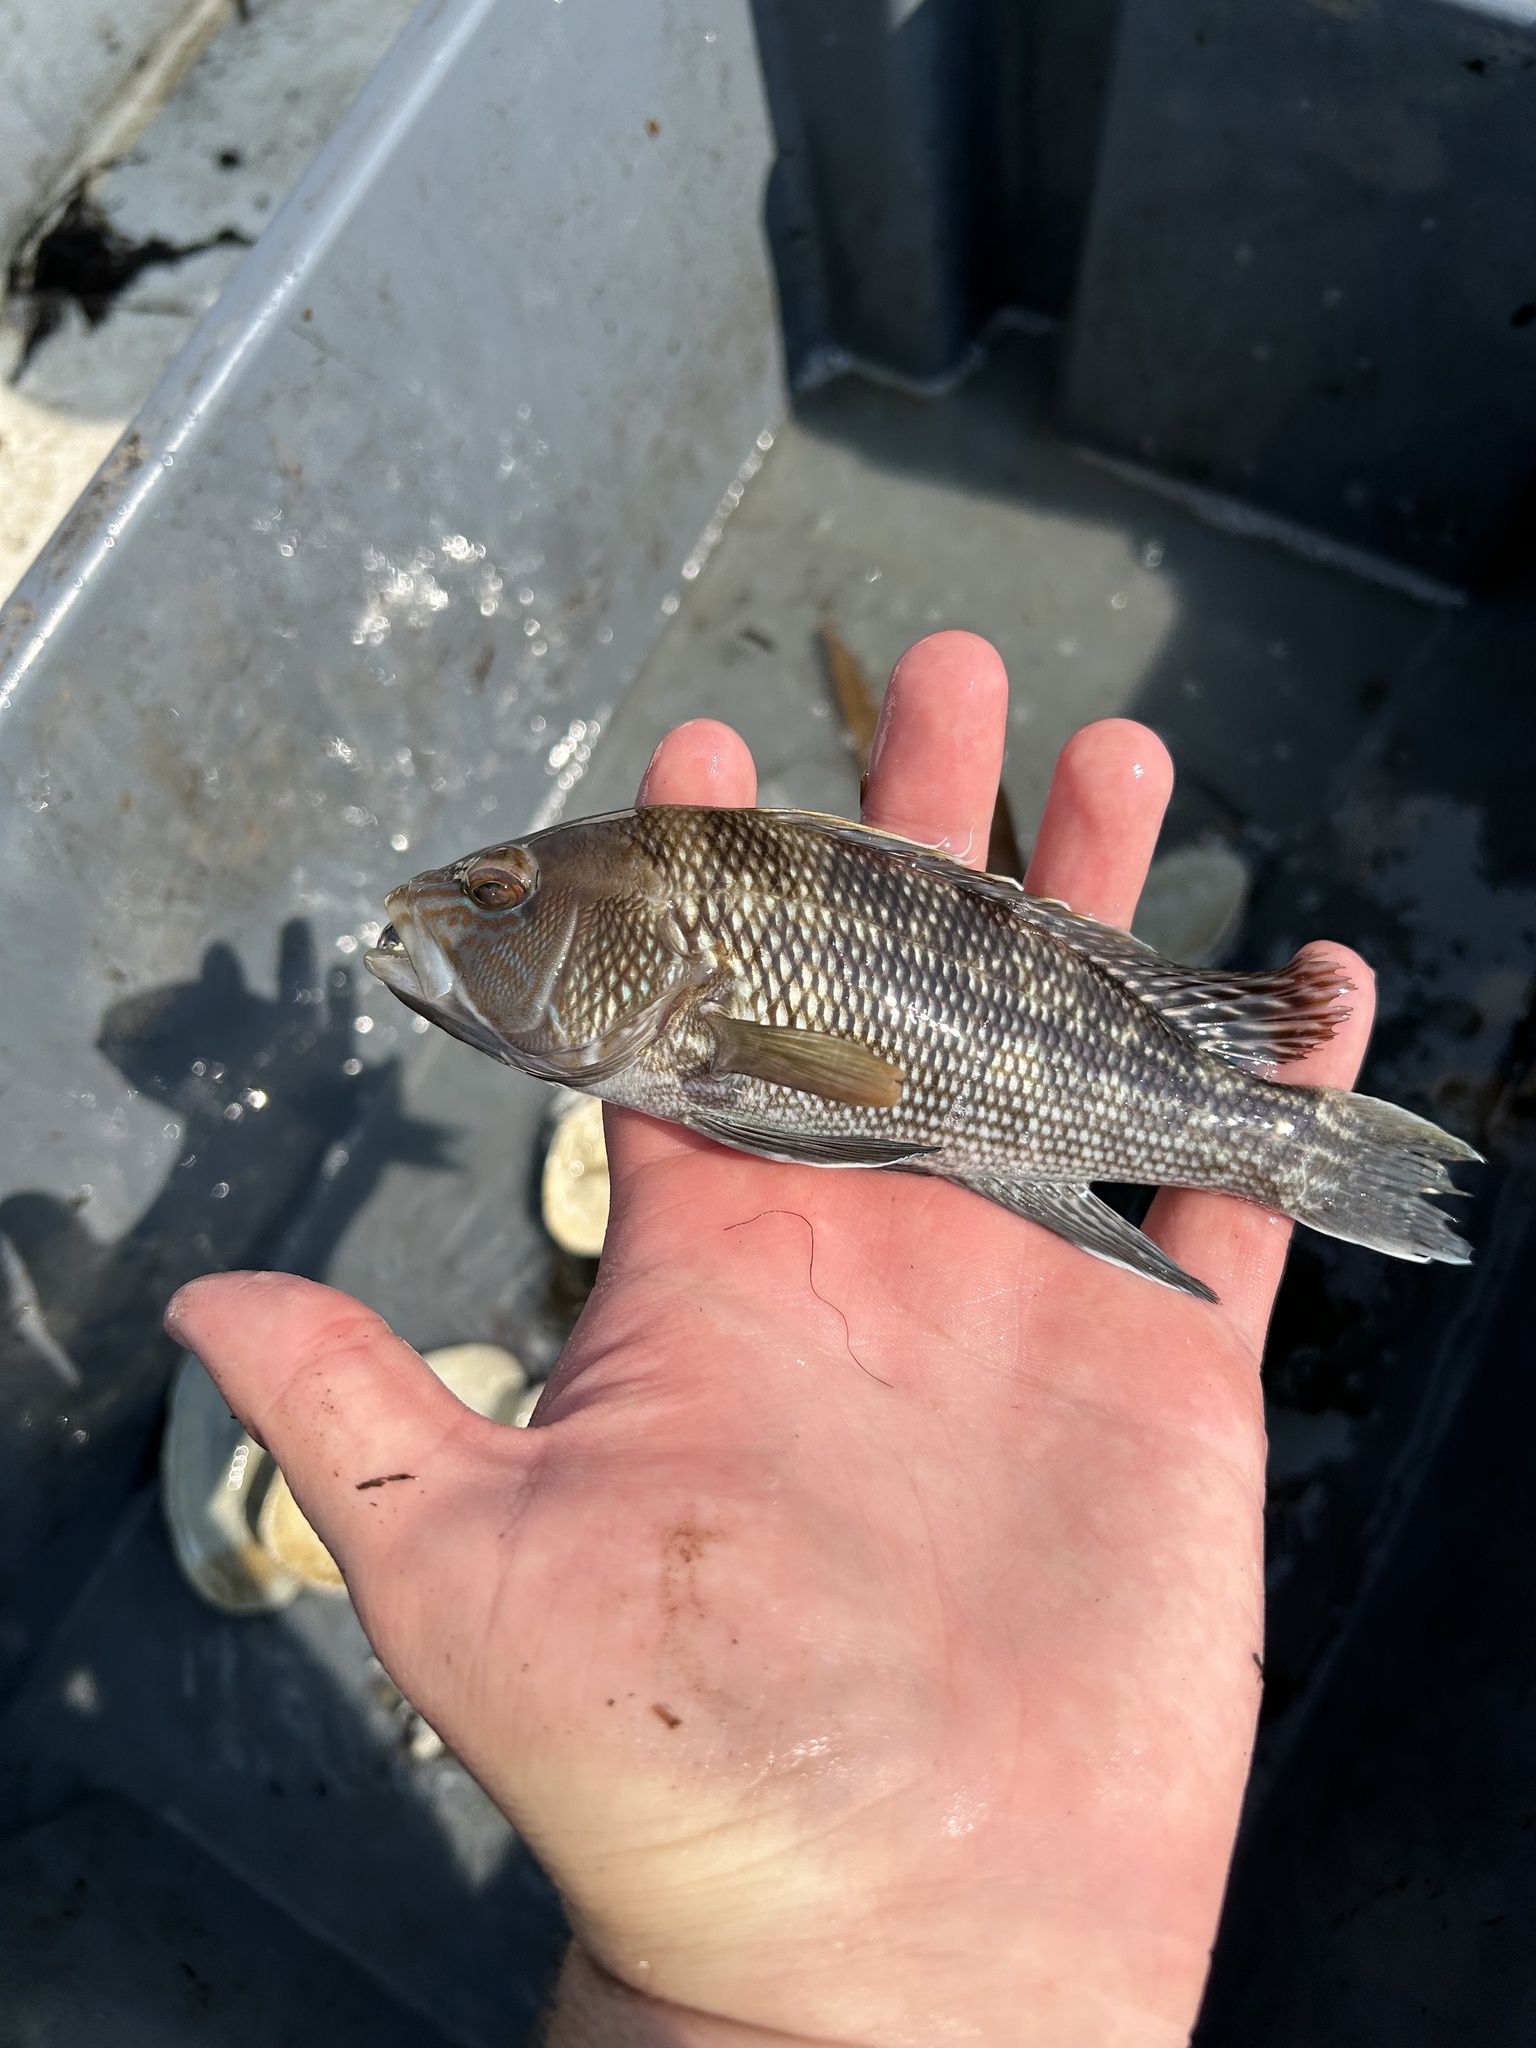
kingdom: Animalia
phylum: Chordata
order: Perciformes
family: Serranidae
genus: Centropristis
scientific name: Centropristis striata
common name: Black sea bass
